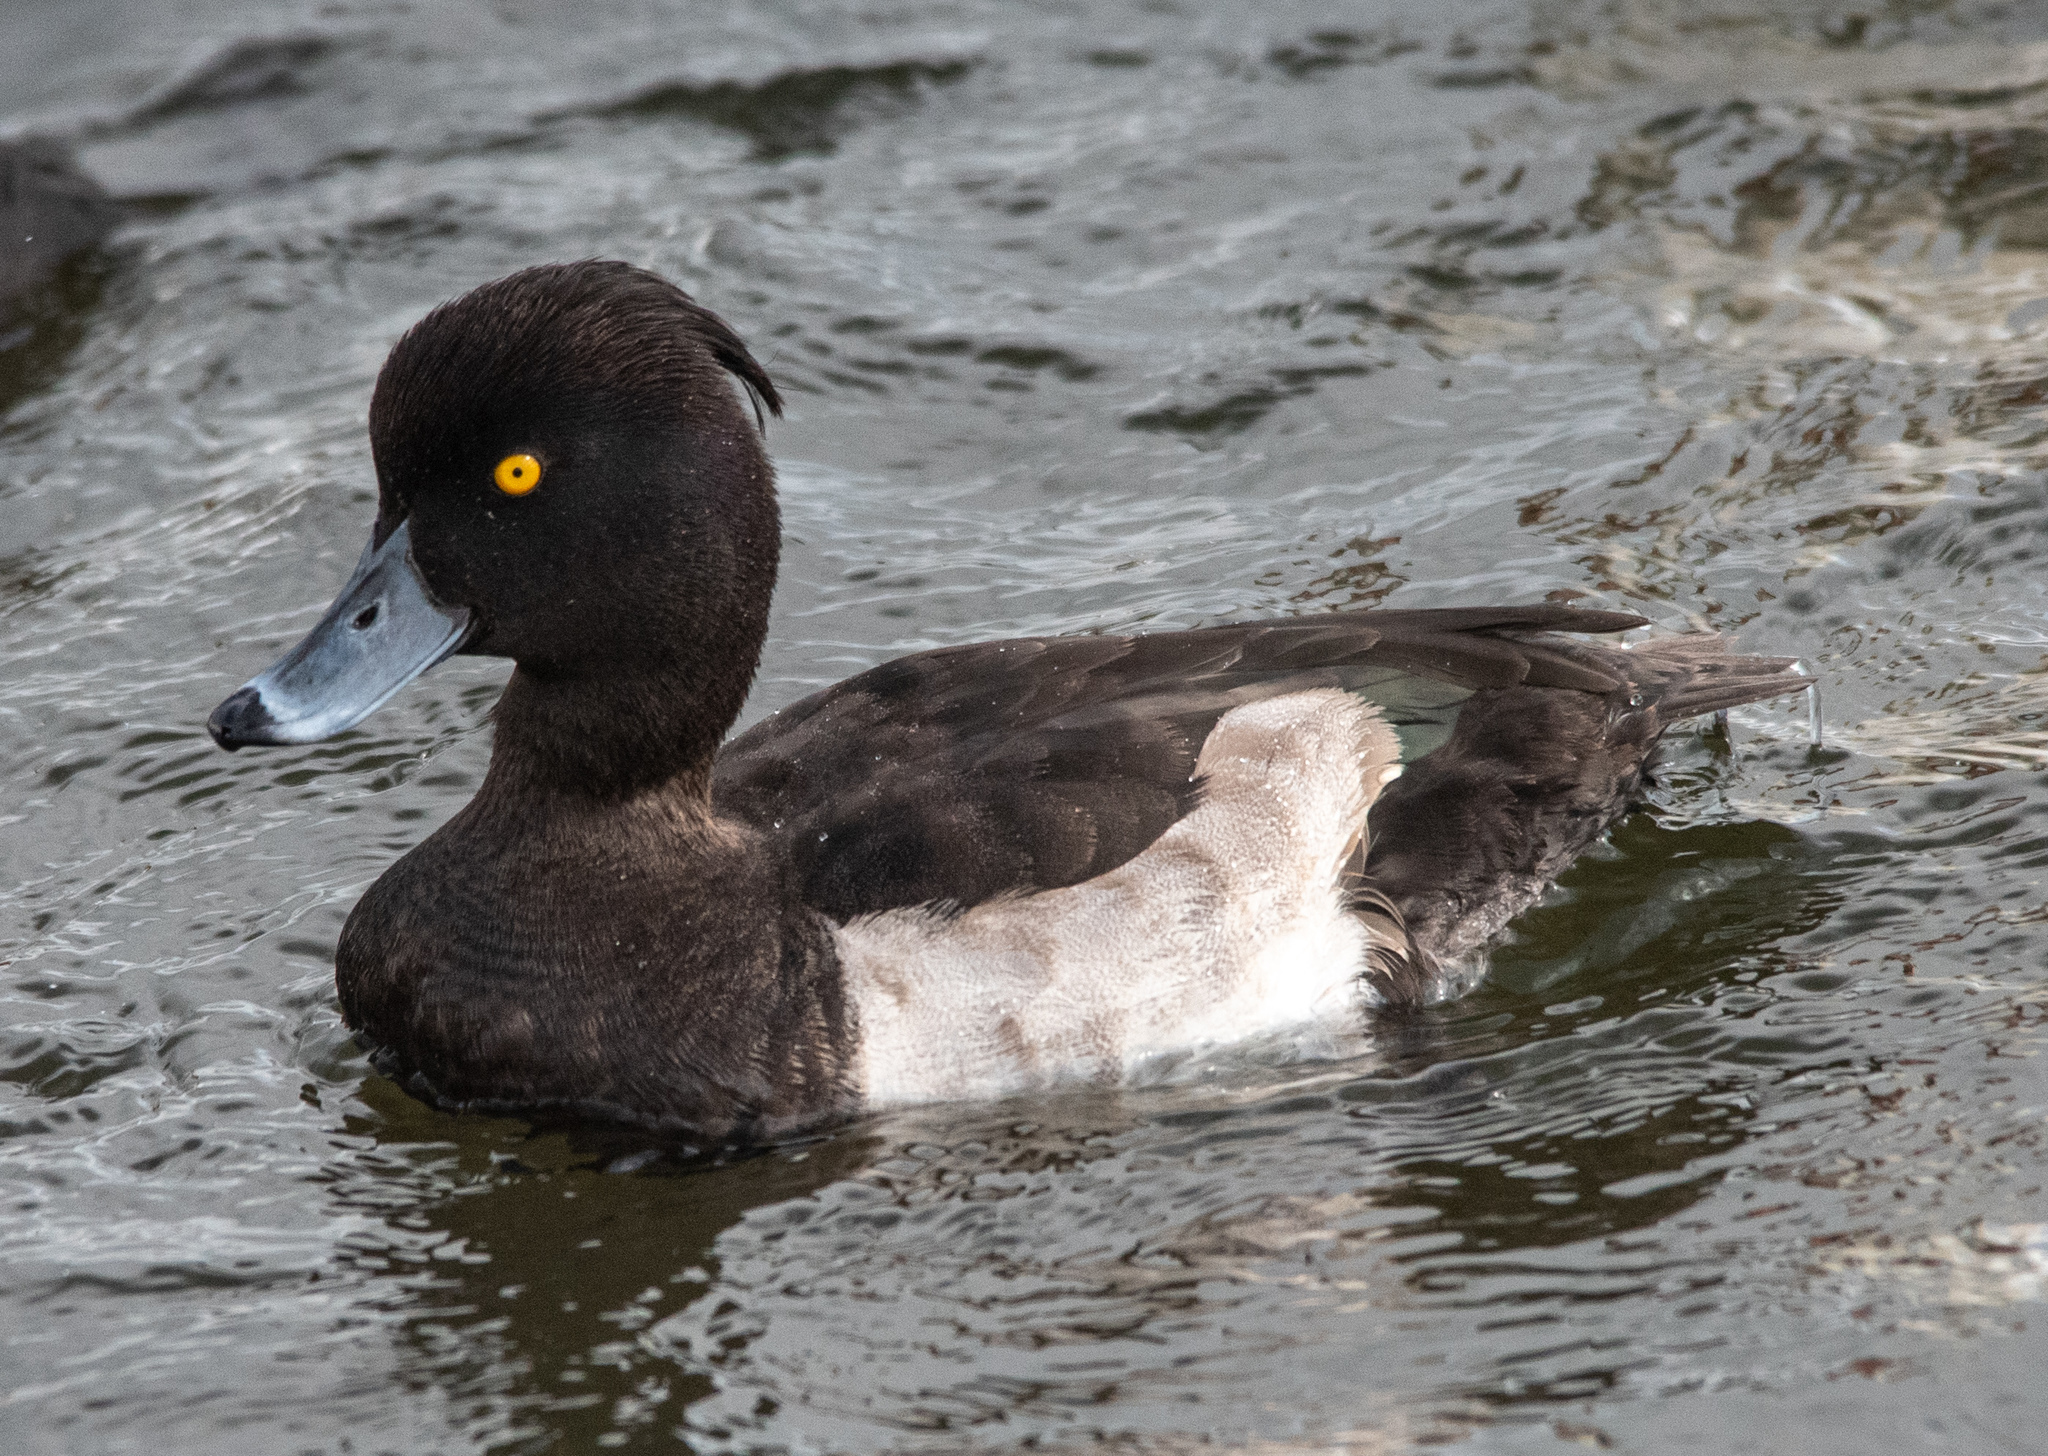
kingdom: Animalia
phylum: Chordata
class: Aves
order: Anseriformes
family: Anatidae
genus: Aythya
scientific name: Aythya fuligula
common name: Tufted duck
